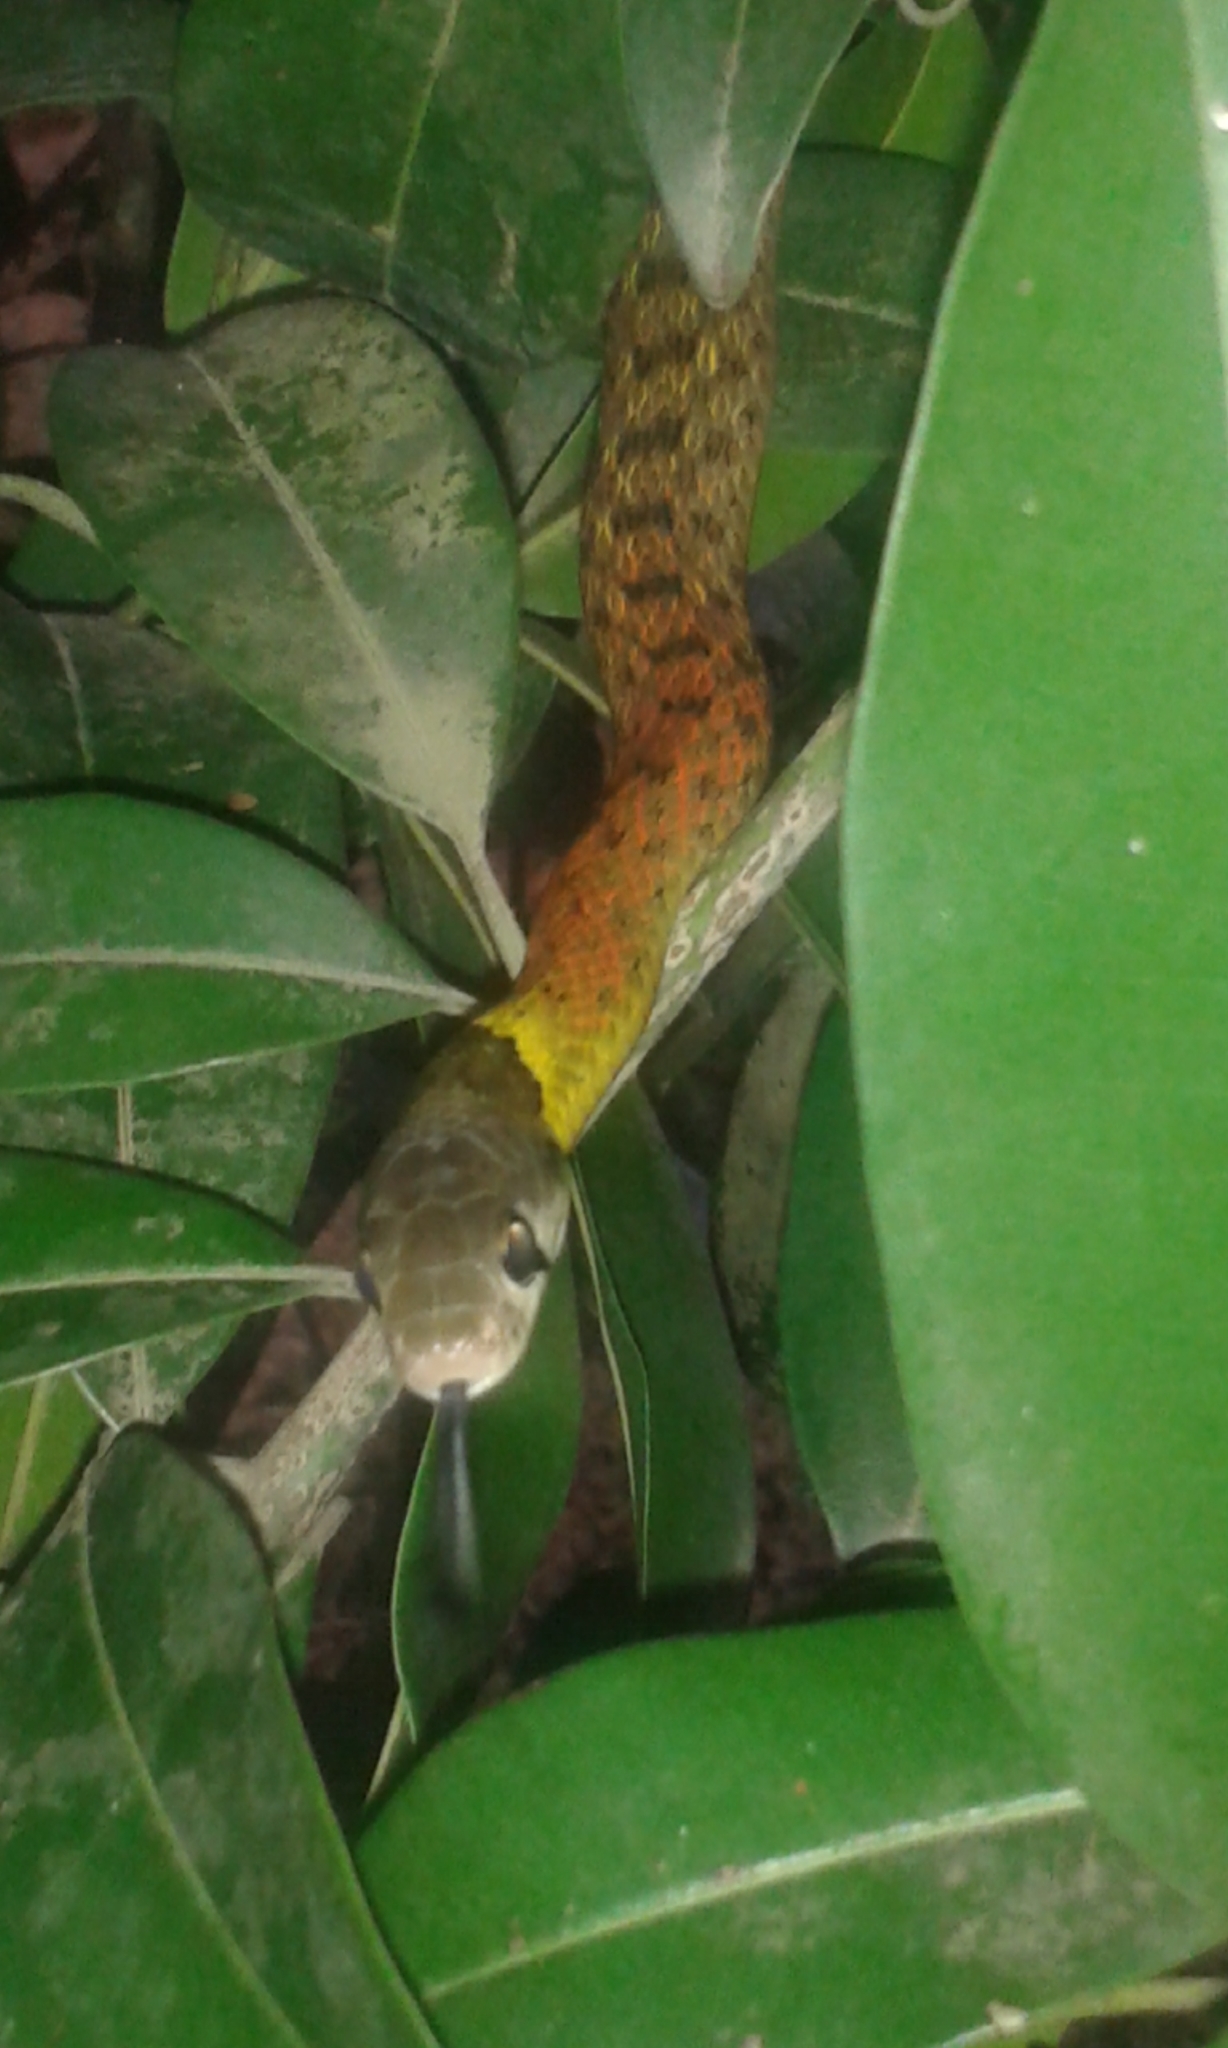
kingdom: Animalia
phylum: Chordata
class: Squamata
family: Colubridae
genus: Rhabdophis
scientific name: Rhabdophis helleri
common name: Heller’s red-necked keelback
